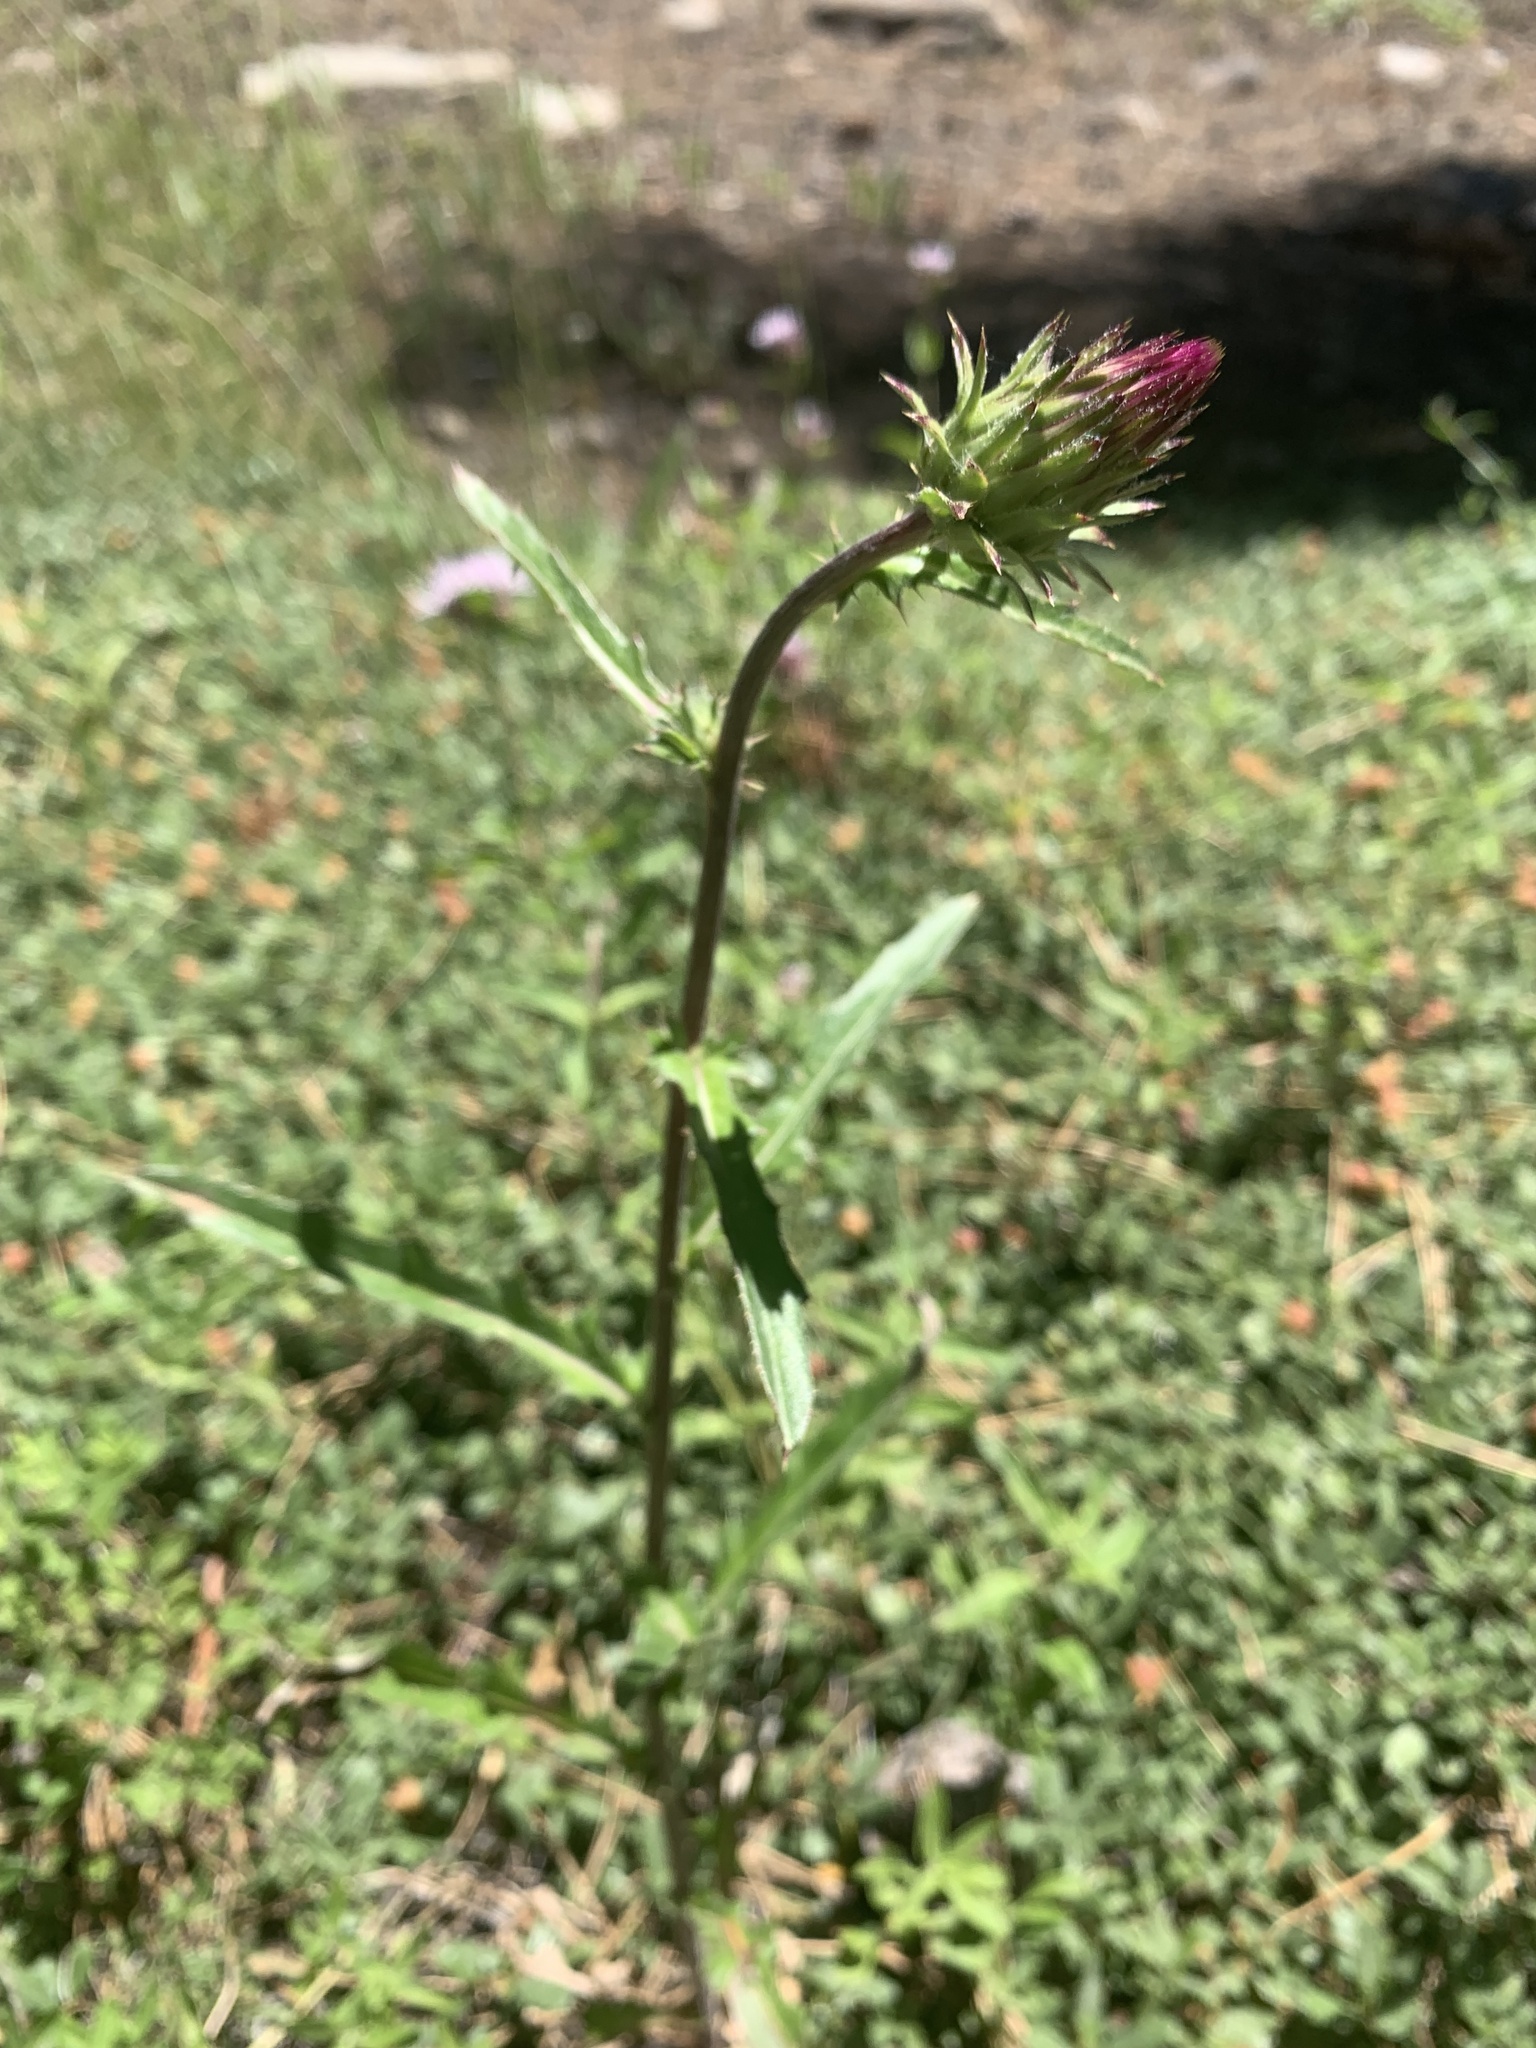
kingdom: Plantae
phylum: Tracheophyta
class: Magnoliopsida
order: Asterales
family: Asteraceae
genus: Cirsium
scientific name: Cirsium andersonii
